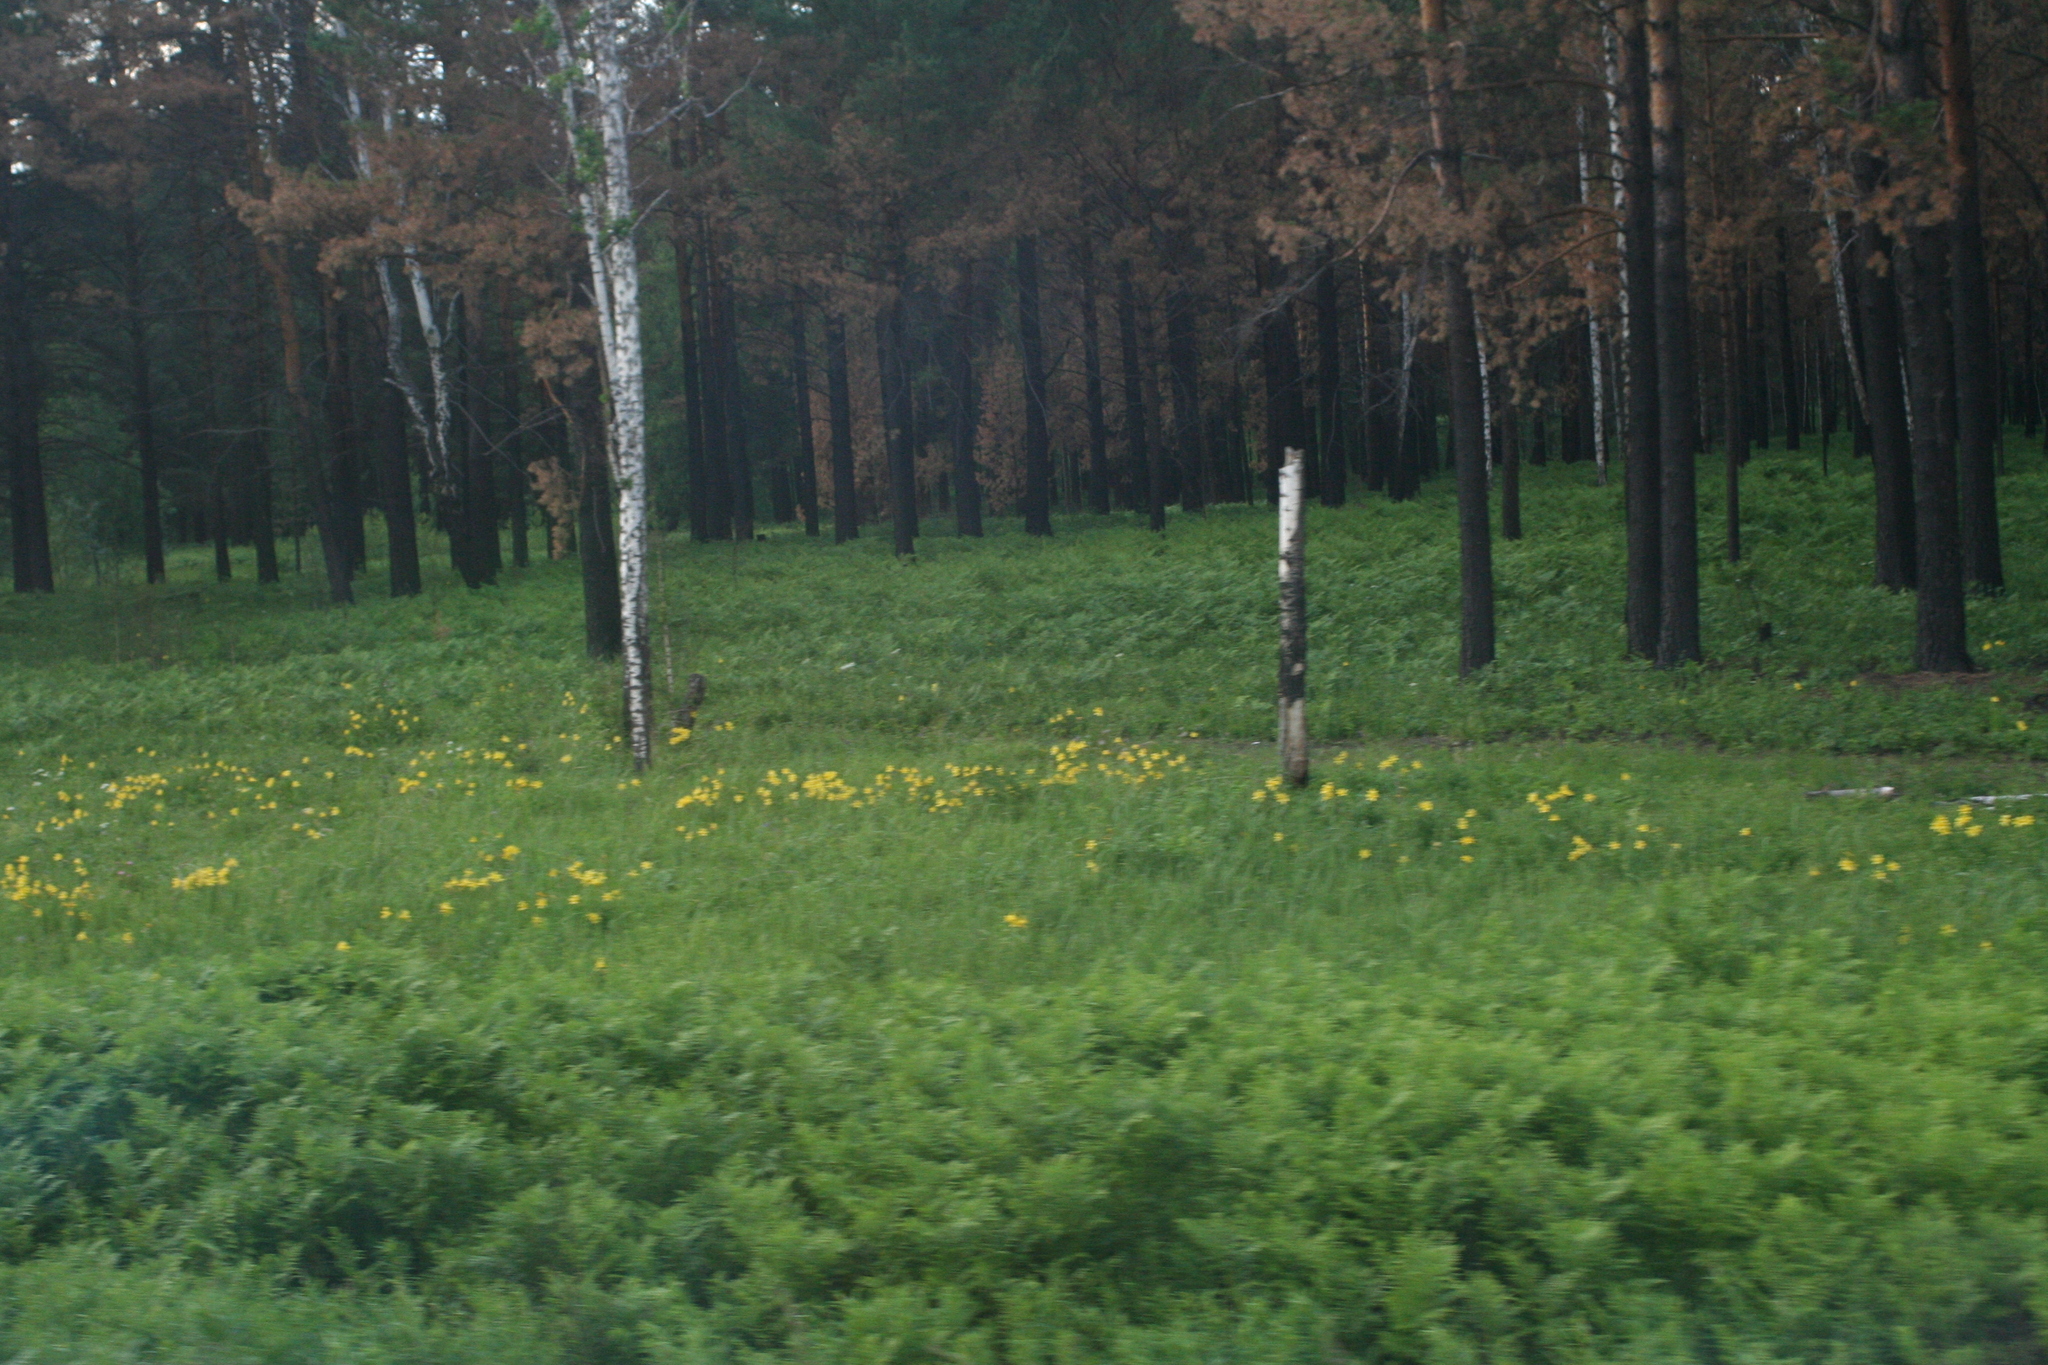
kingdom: Plantae
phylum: Tracheophyta
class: Liliopsida
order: Asparagales
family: Asphodelaceae
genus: Hemerocallis
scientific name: Hemerocallis minor
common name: Small daylily
